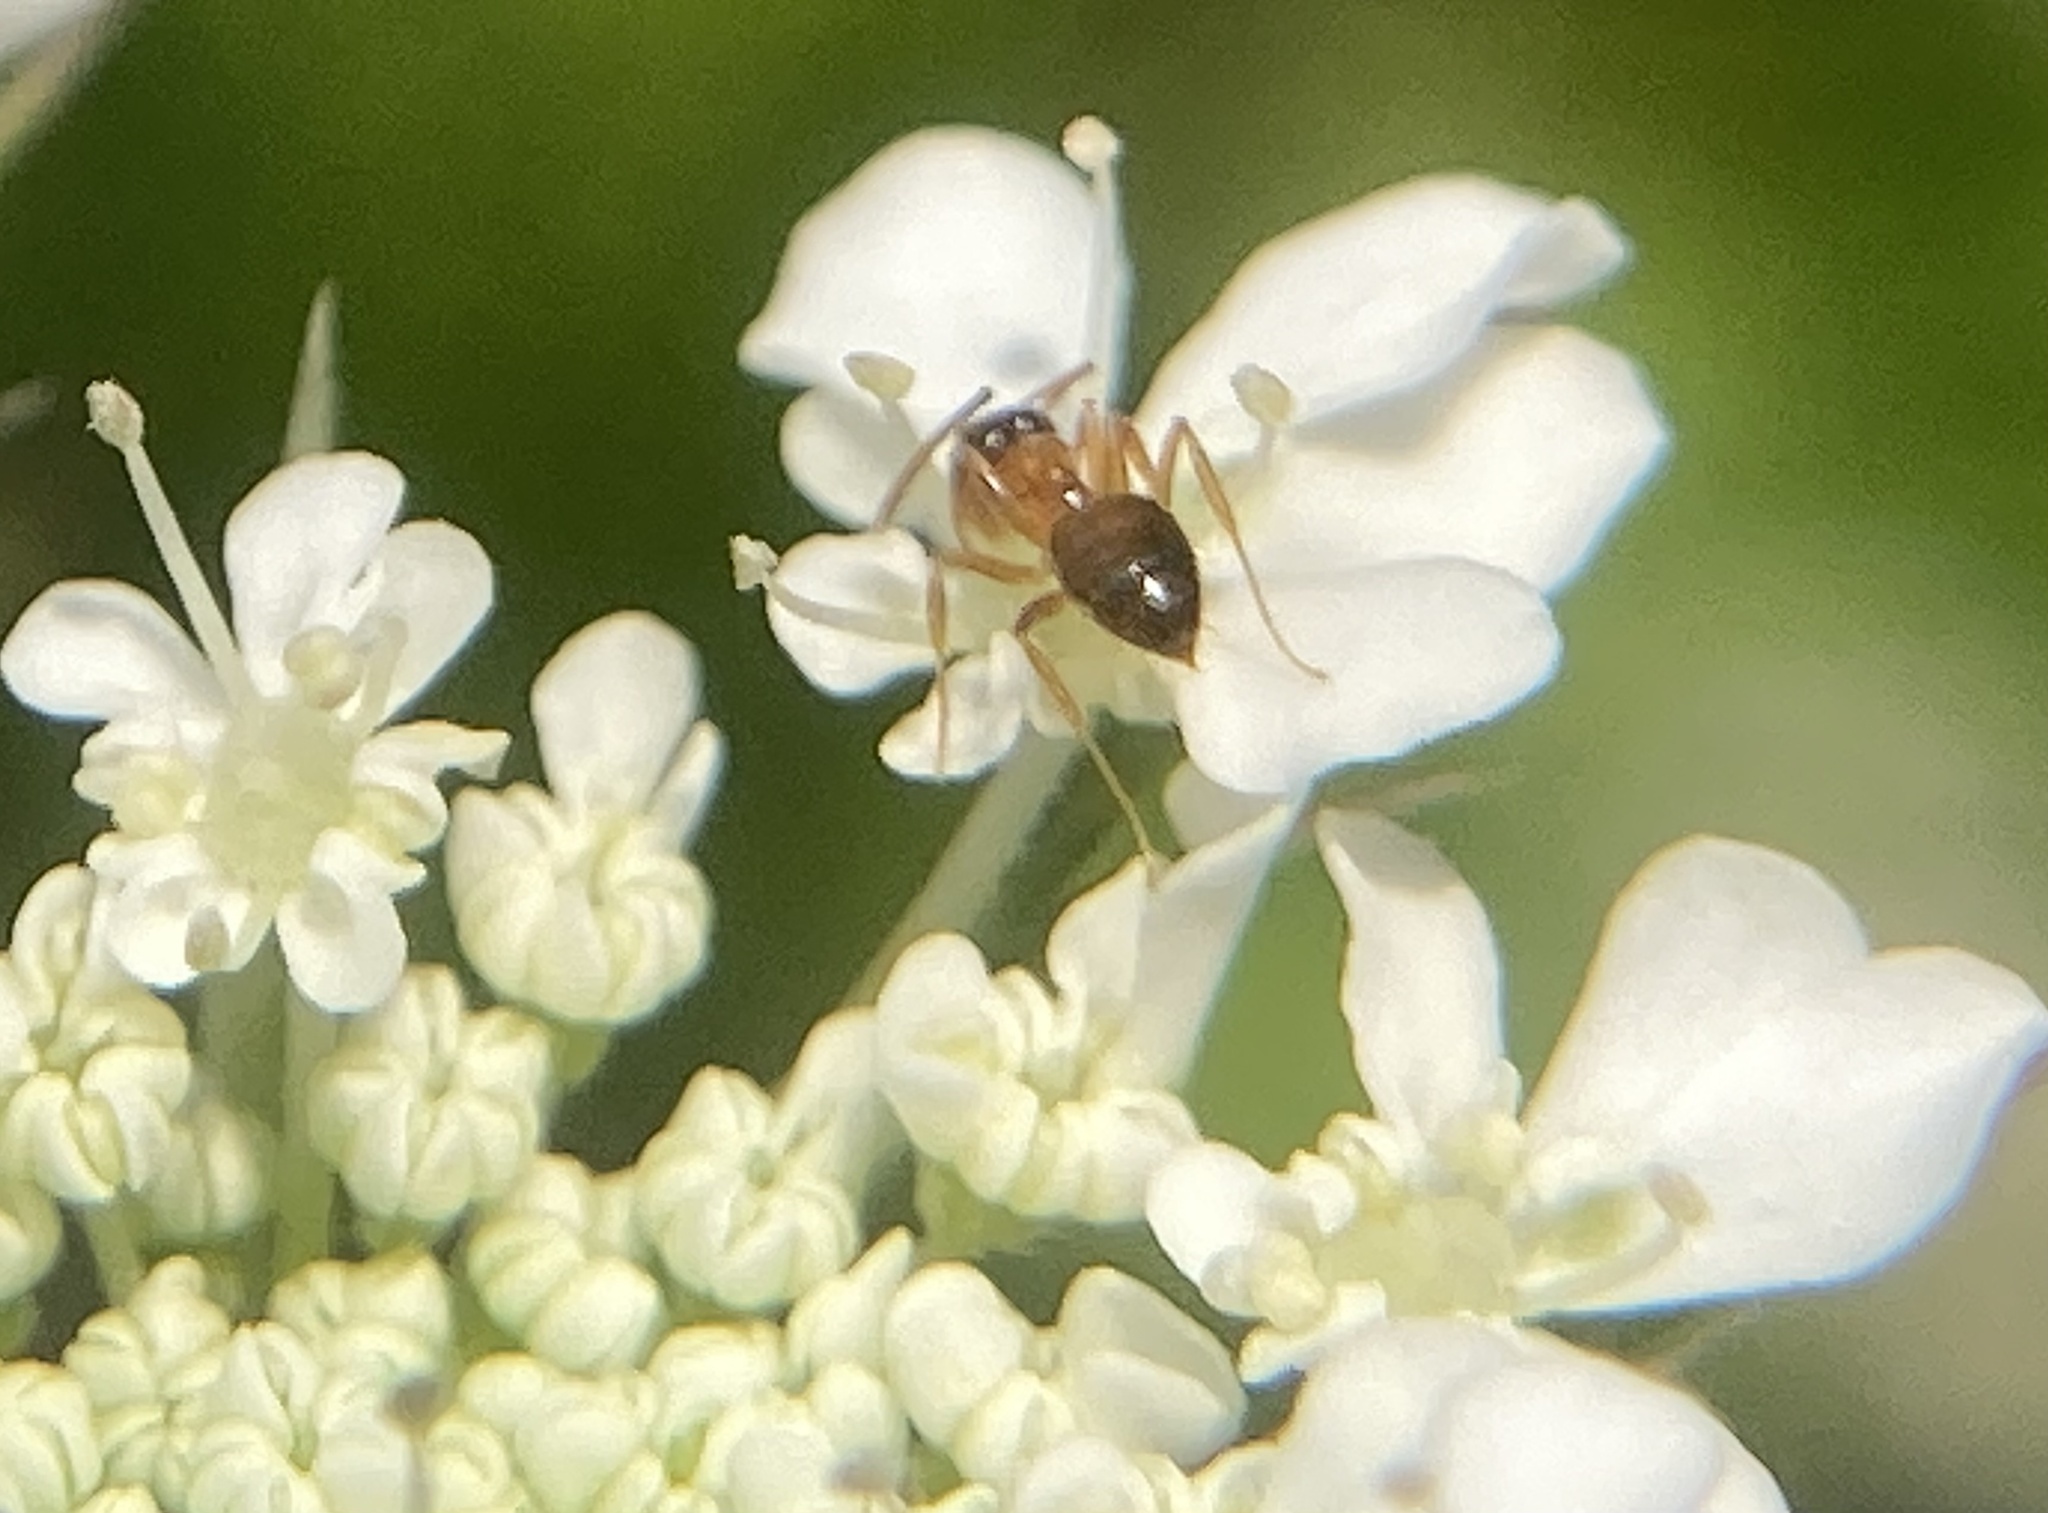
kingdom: Animalia
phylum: Arthropoda
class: Insecta
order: Hymenoptera
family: Formicidae
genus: Paratrechina
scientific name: Paratrechina flavipes
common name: Eastern asian formicine ant
